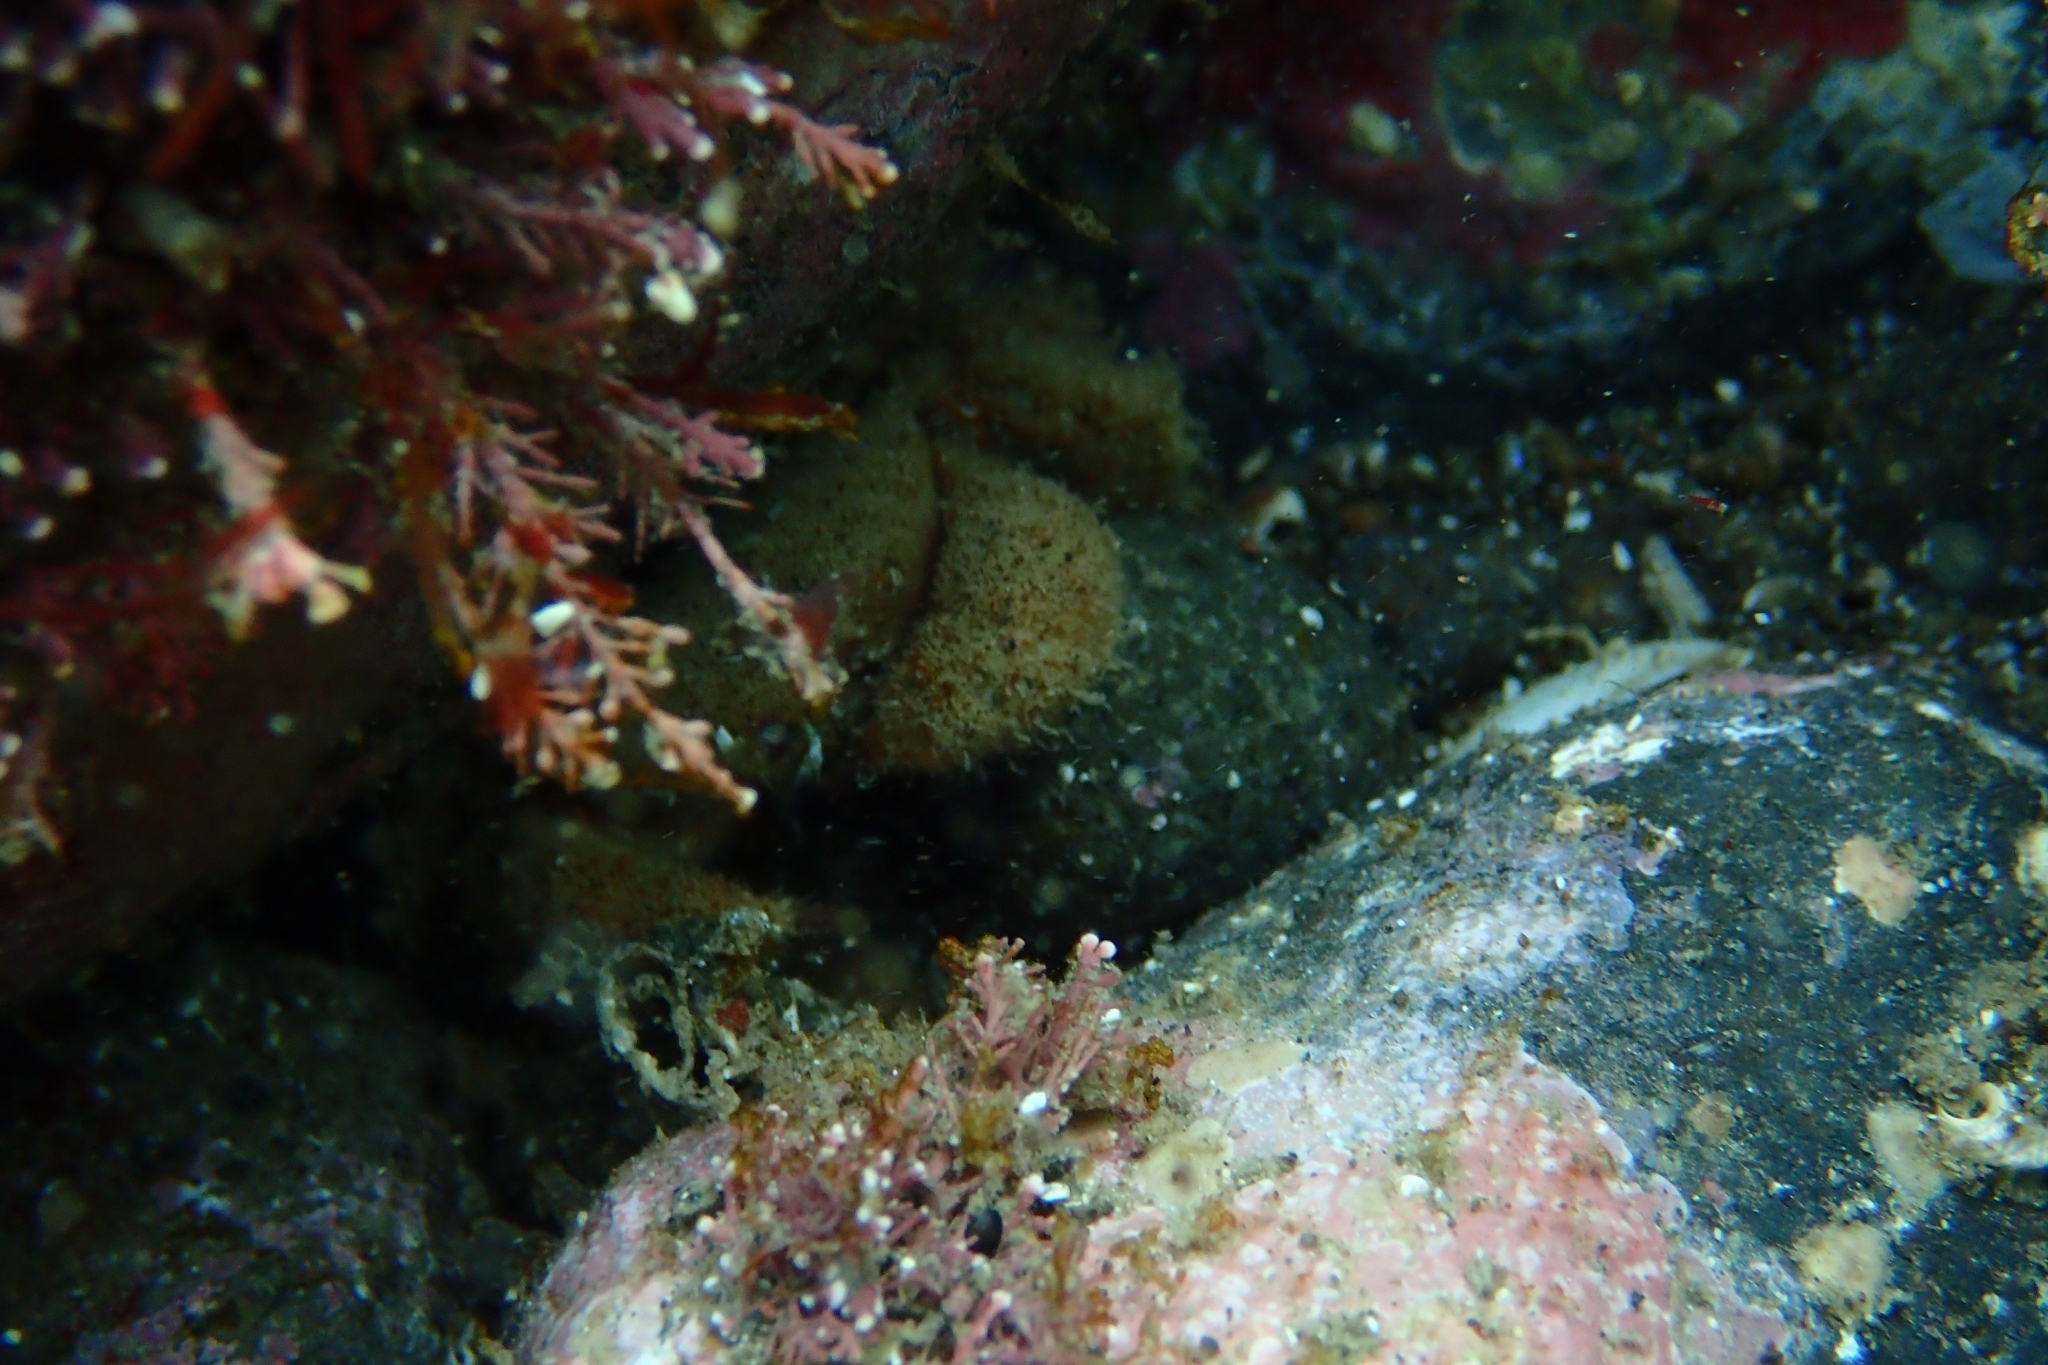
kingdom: Animalia
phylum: Arthropoda
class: Malacostraca
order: Decapoda
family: Pilumnidae
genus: Pilumnus
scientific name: Pilumnus lumpinus
